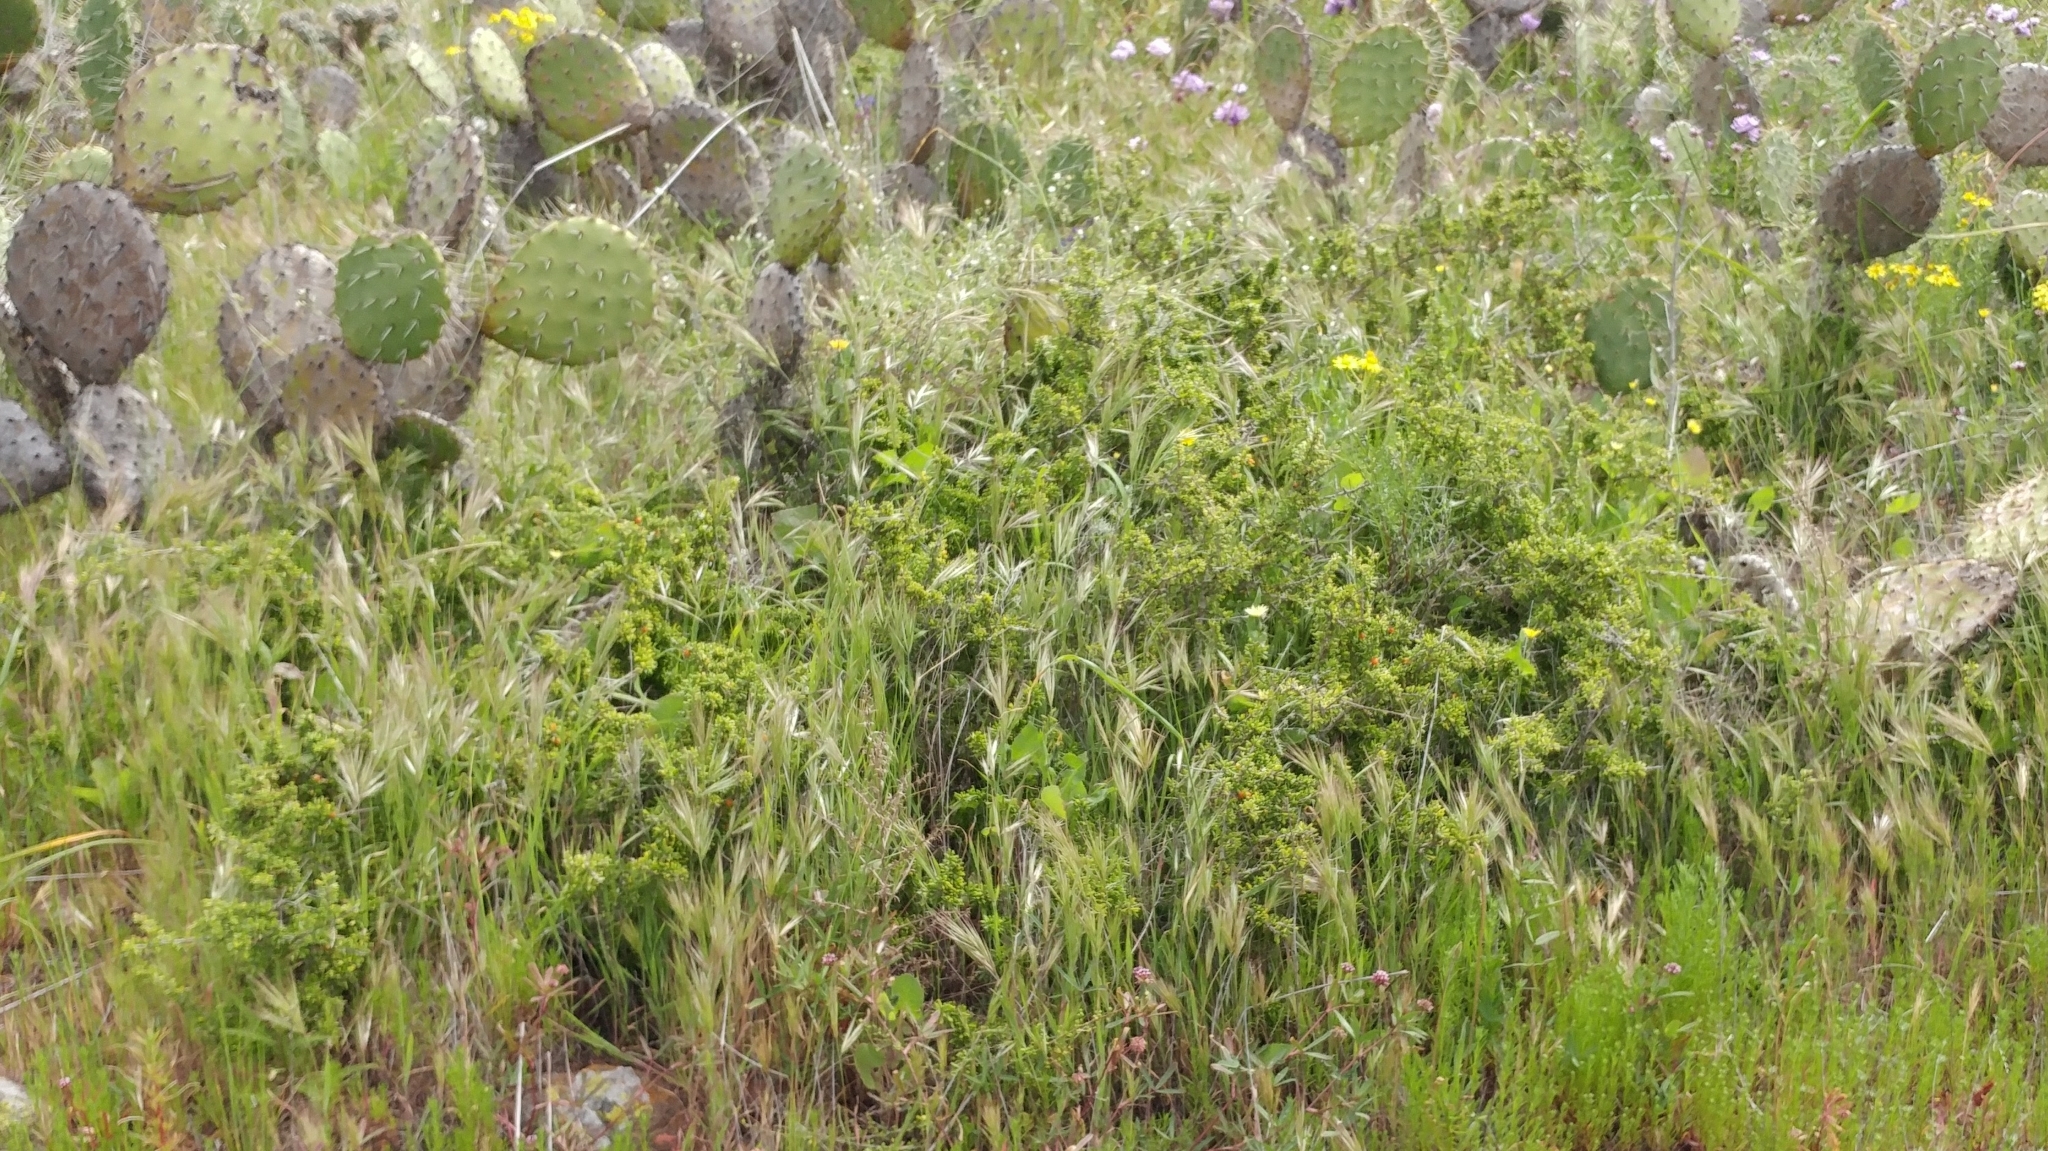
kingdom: Plantae
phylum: Tracheophyta
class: Magnoliopsida
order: Solanales
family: Solanaceae
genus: Lycium
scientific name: Lycium californicum
